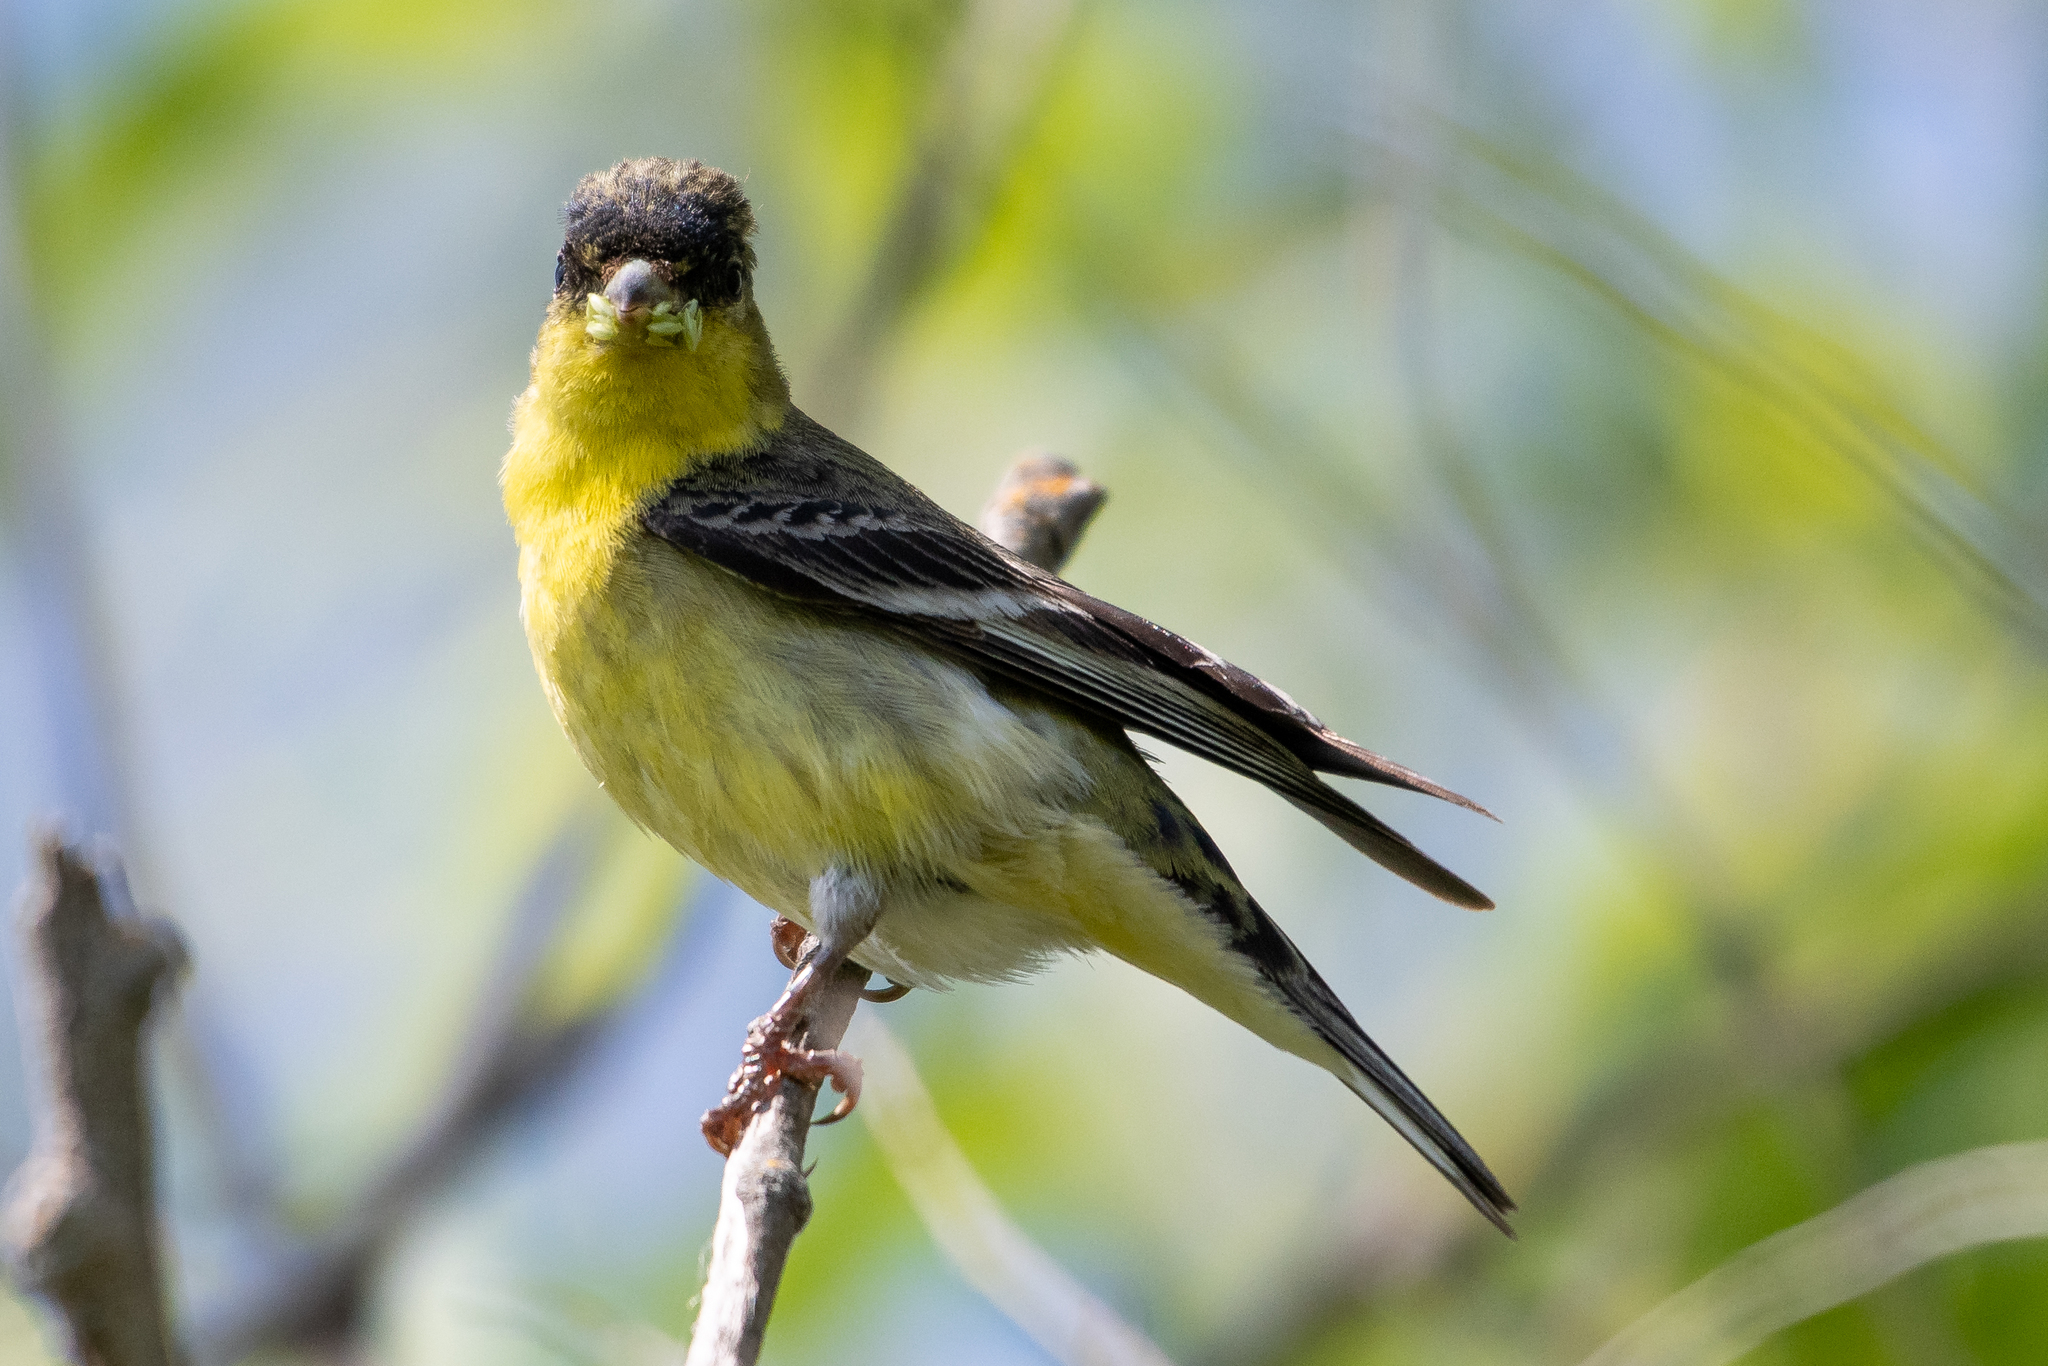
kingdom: Animalia
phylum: Chordata
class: Aves
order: Passeriformes
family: Fringillidae
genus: Spinus
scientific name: Spinus psaltria
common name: Lesser goldfinch
